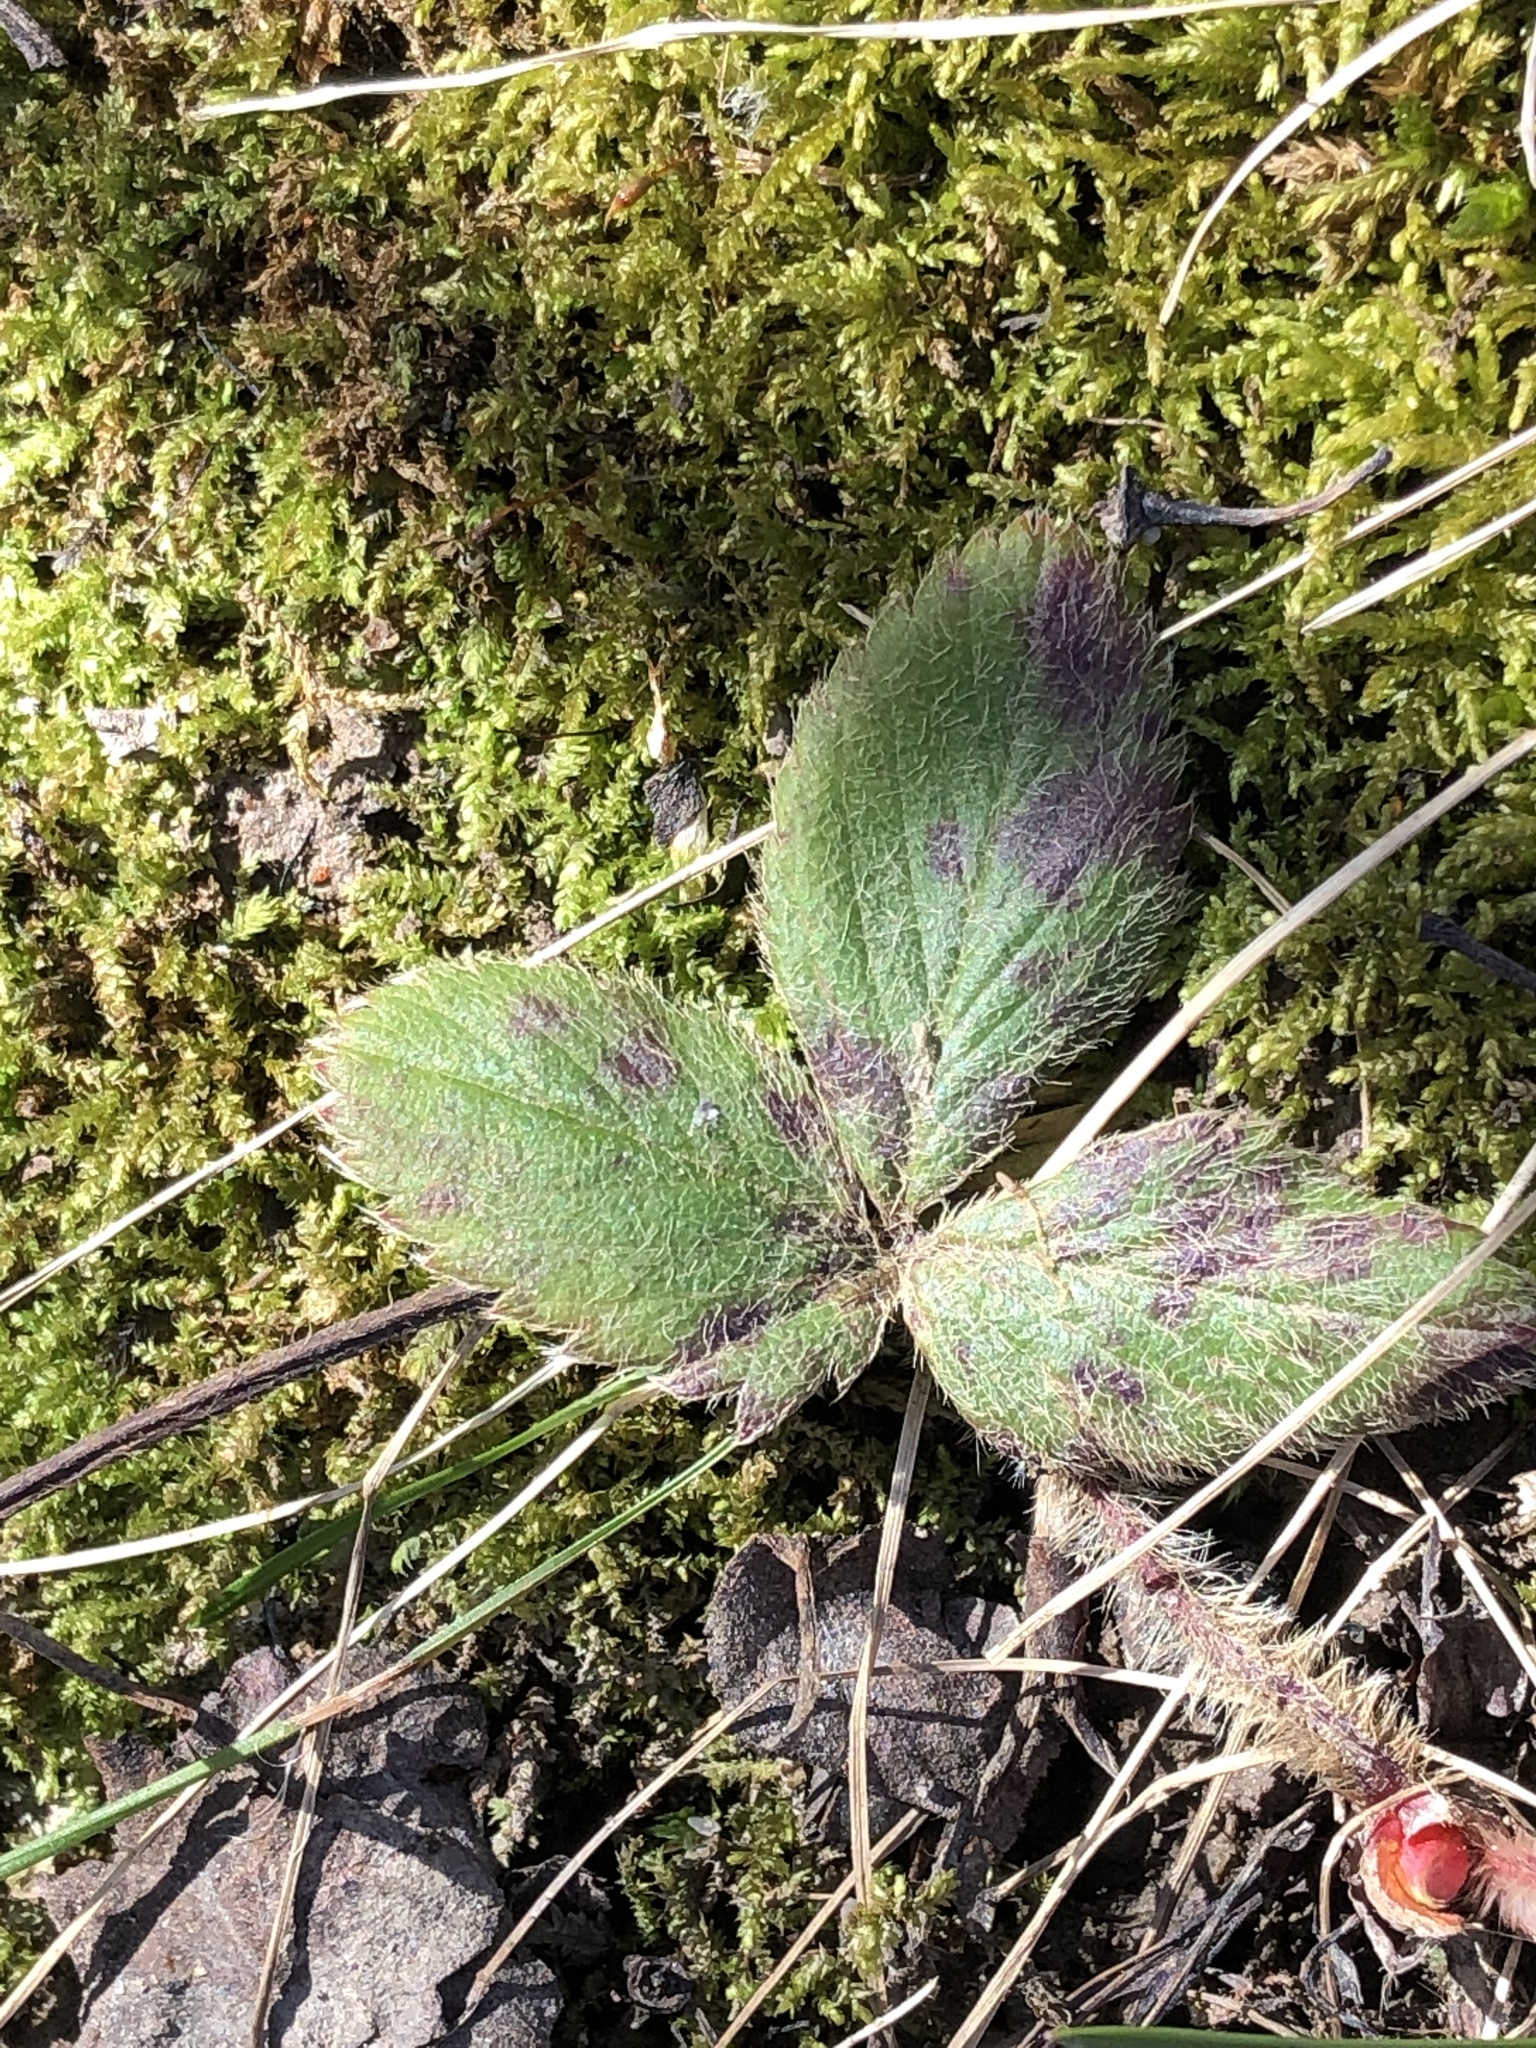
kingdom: Plantae
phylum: Tracheophyta
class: Magnoliopsida
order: Rosales
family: Rosaceae
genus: Fragaria
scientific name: Fragaria virginiana
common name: Thickleaved wild strawberry
